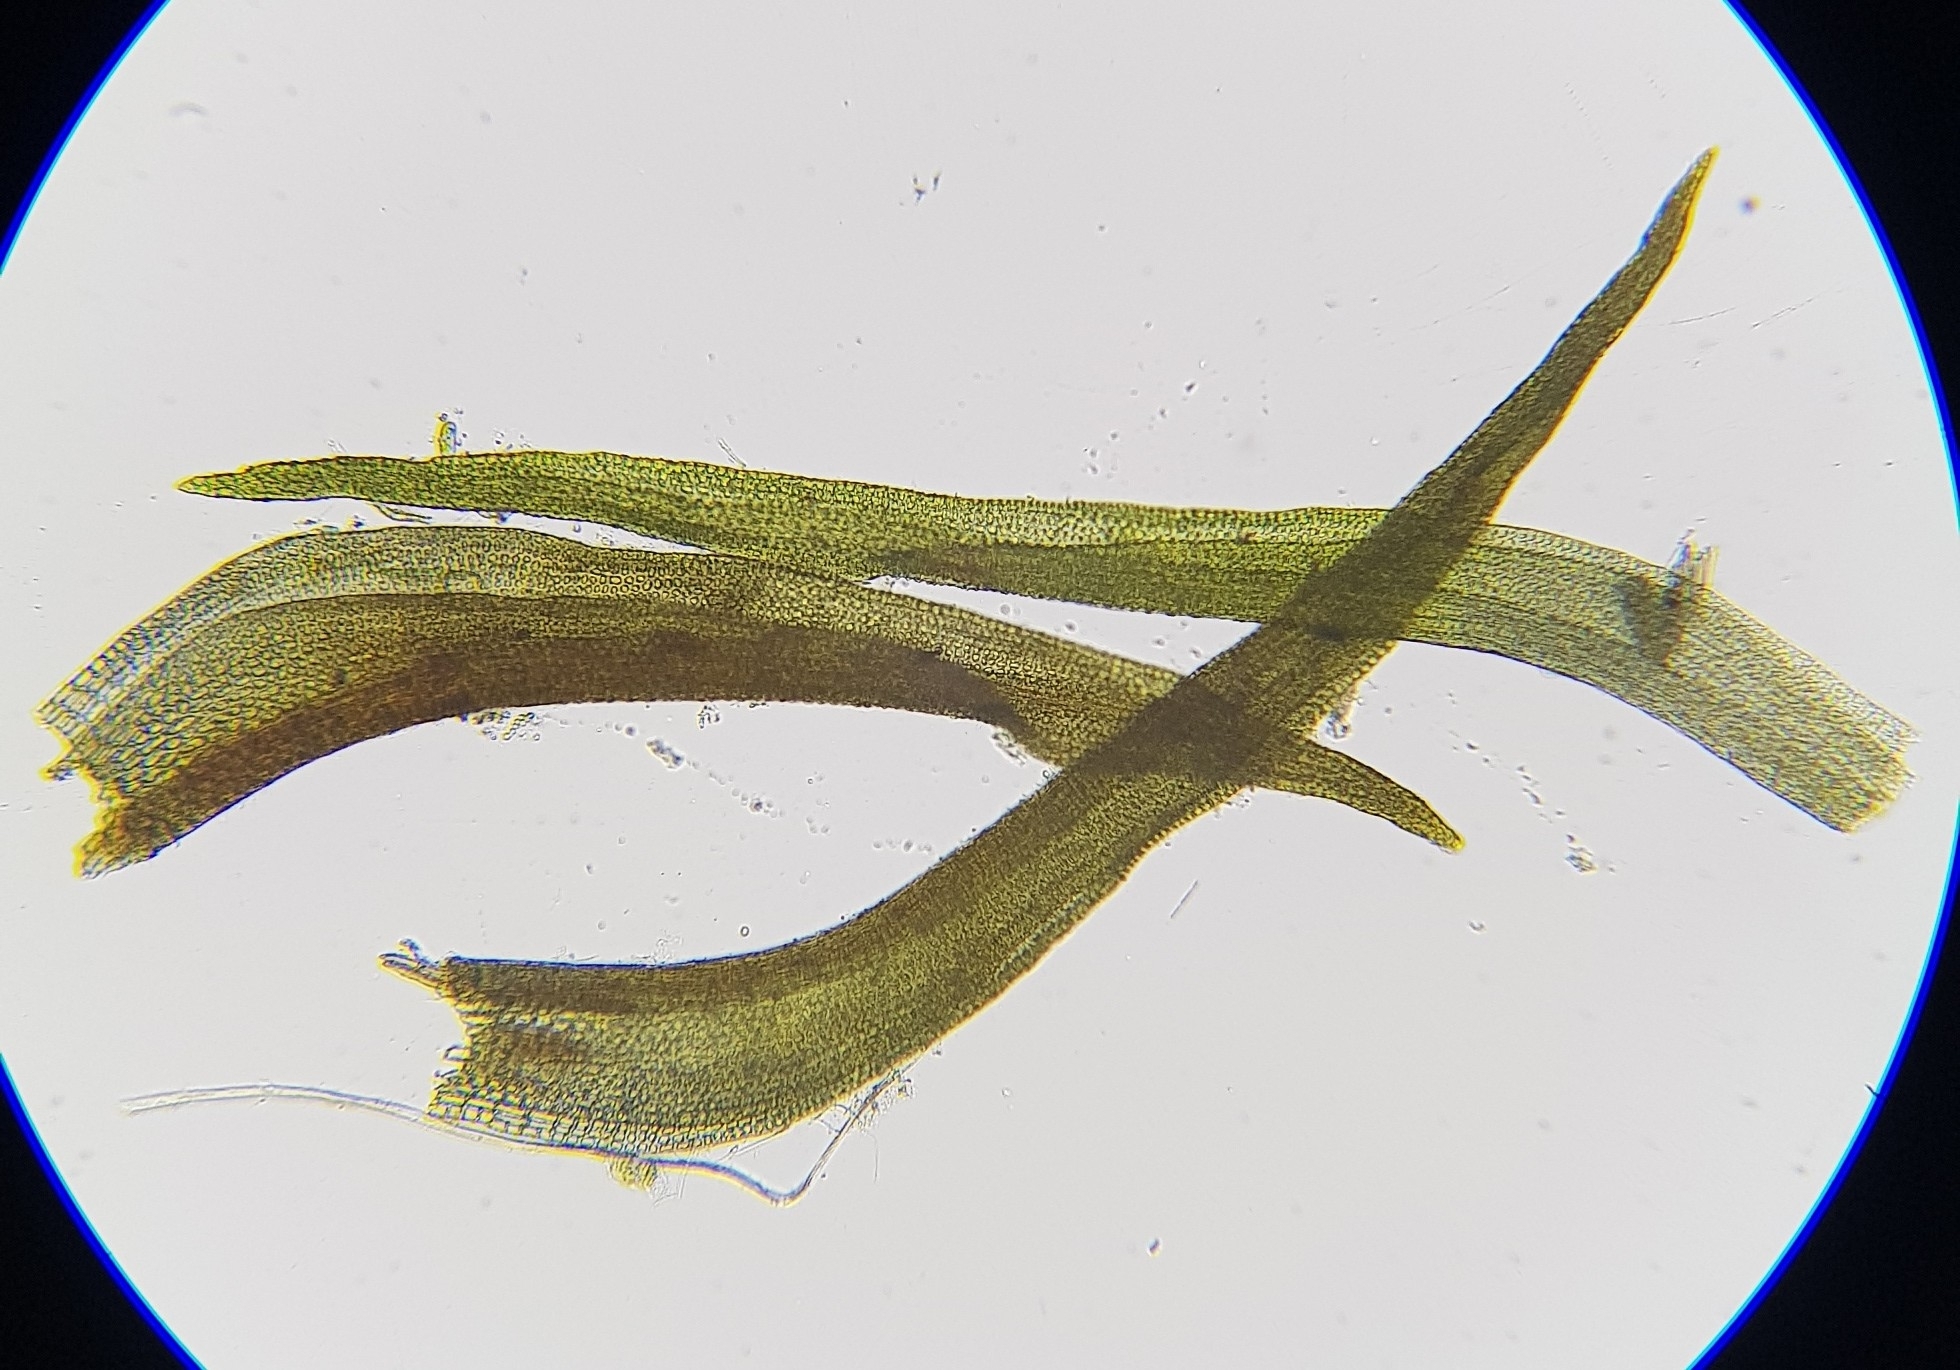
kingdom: Plantae
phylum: Bryophyta
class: Bryopsida
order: Pottiales
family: Pottiaceae
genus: Didymodon
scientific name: Didymodon rigidulus
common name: Rigid beard-moss
